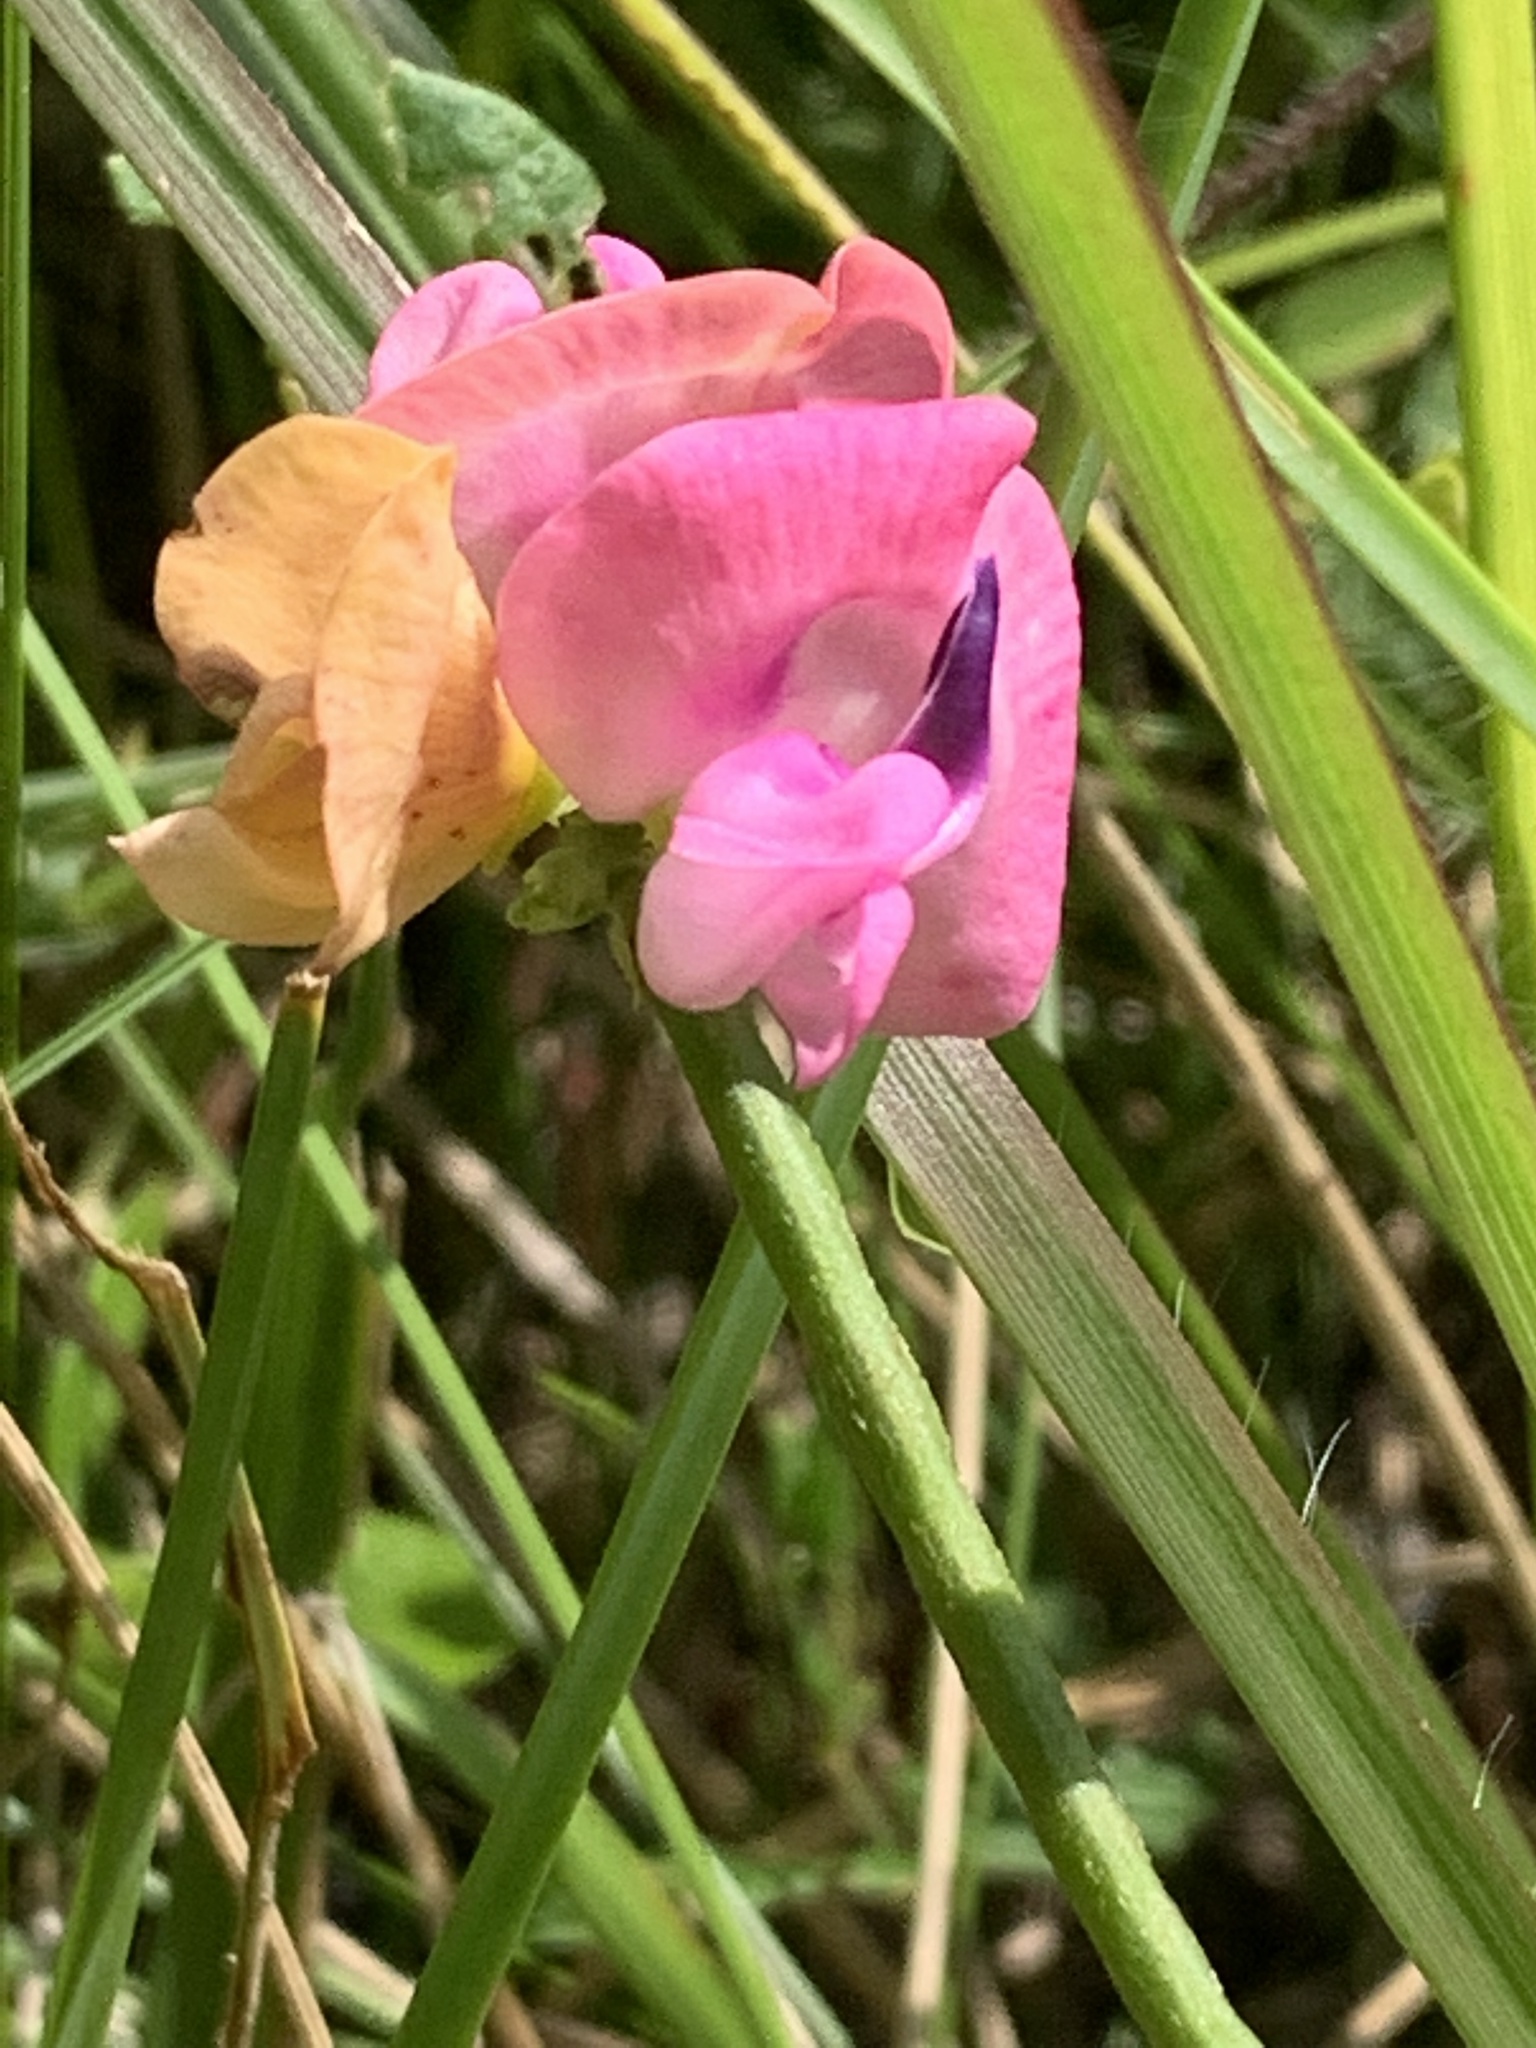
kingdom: Plantae
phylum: Tracheophyta
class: Magnoliopsida
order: Fabales
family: Fabaceae
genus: Strophostyles
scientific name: Strophostyles umbellata
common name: Perennial wild bean
